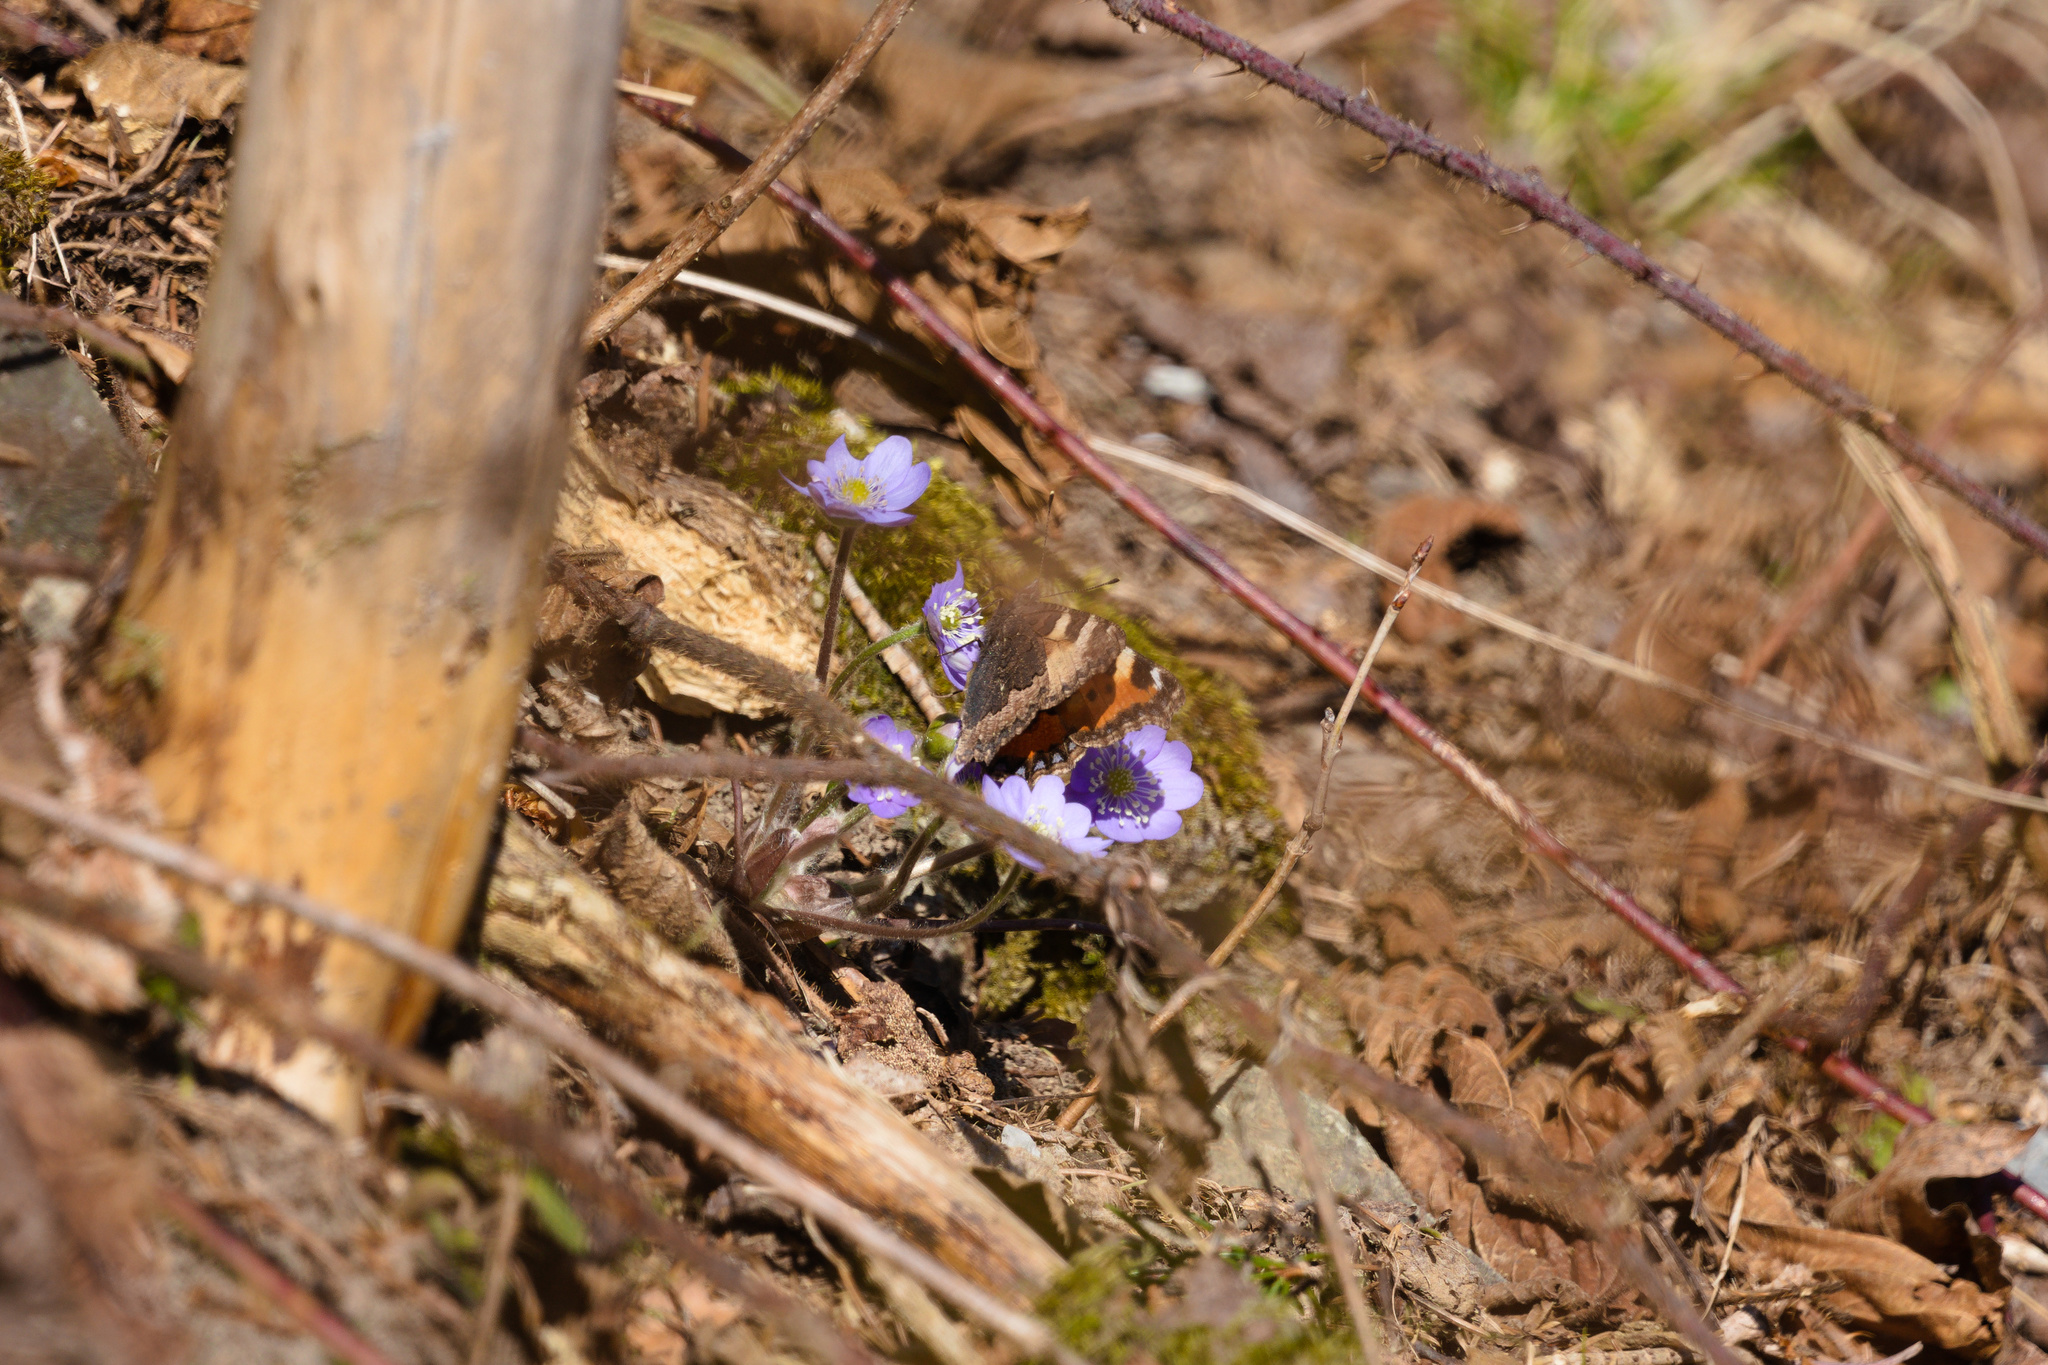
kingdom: Animalia
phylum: Arthropoda
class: Insecta
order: Lepidoptera
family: Nymphalidae
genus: Aglais
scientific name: Aglais urticae
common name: Small tortoiseshell
